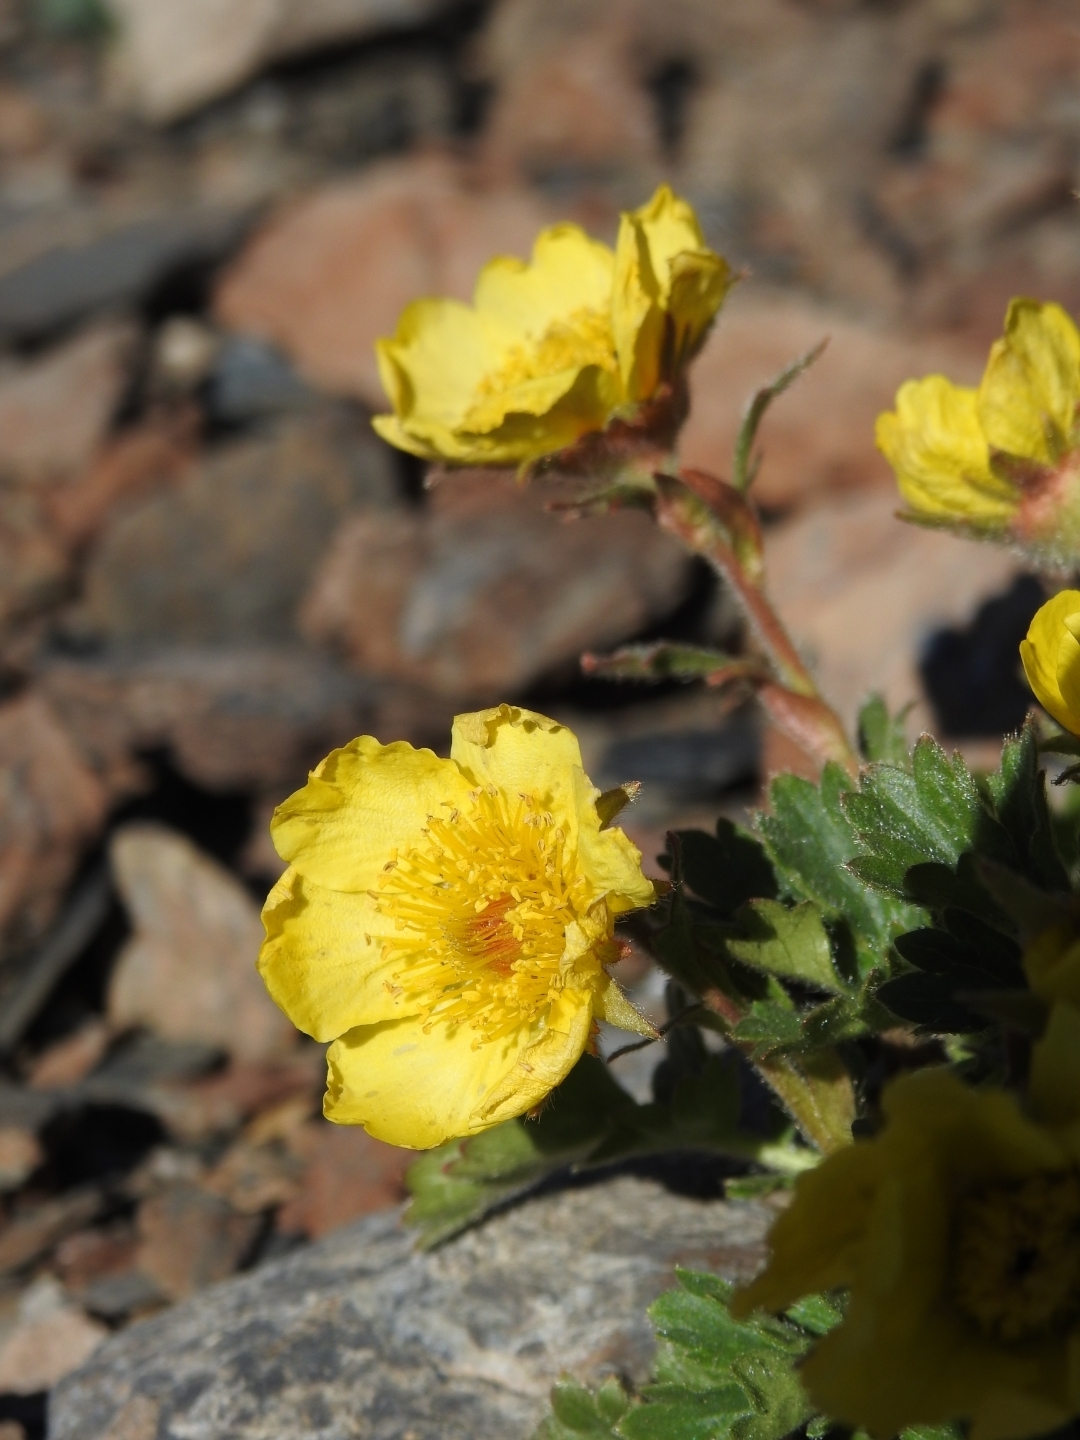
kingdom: Plantae
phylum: Tracheophyta
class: Magnoliopsida
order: Rosales
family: Rosaceae
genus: Geum
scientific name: Geum reptans
